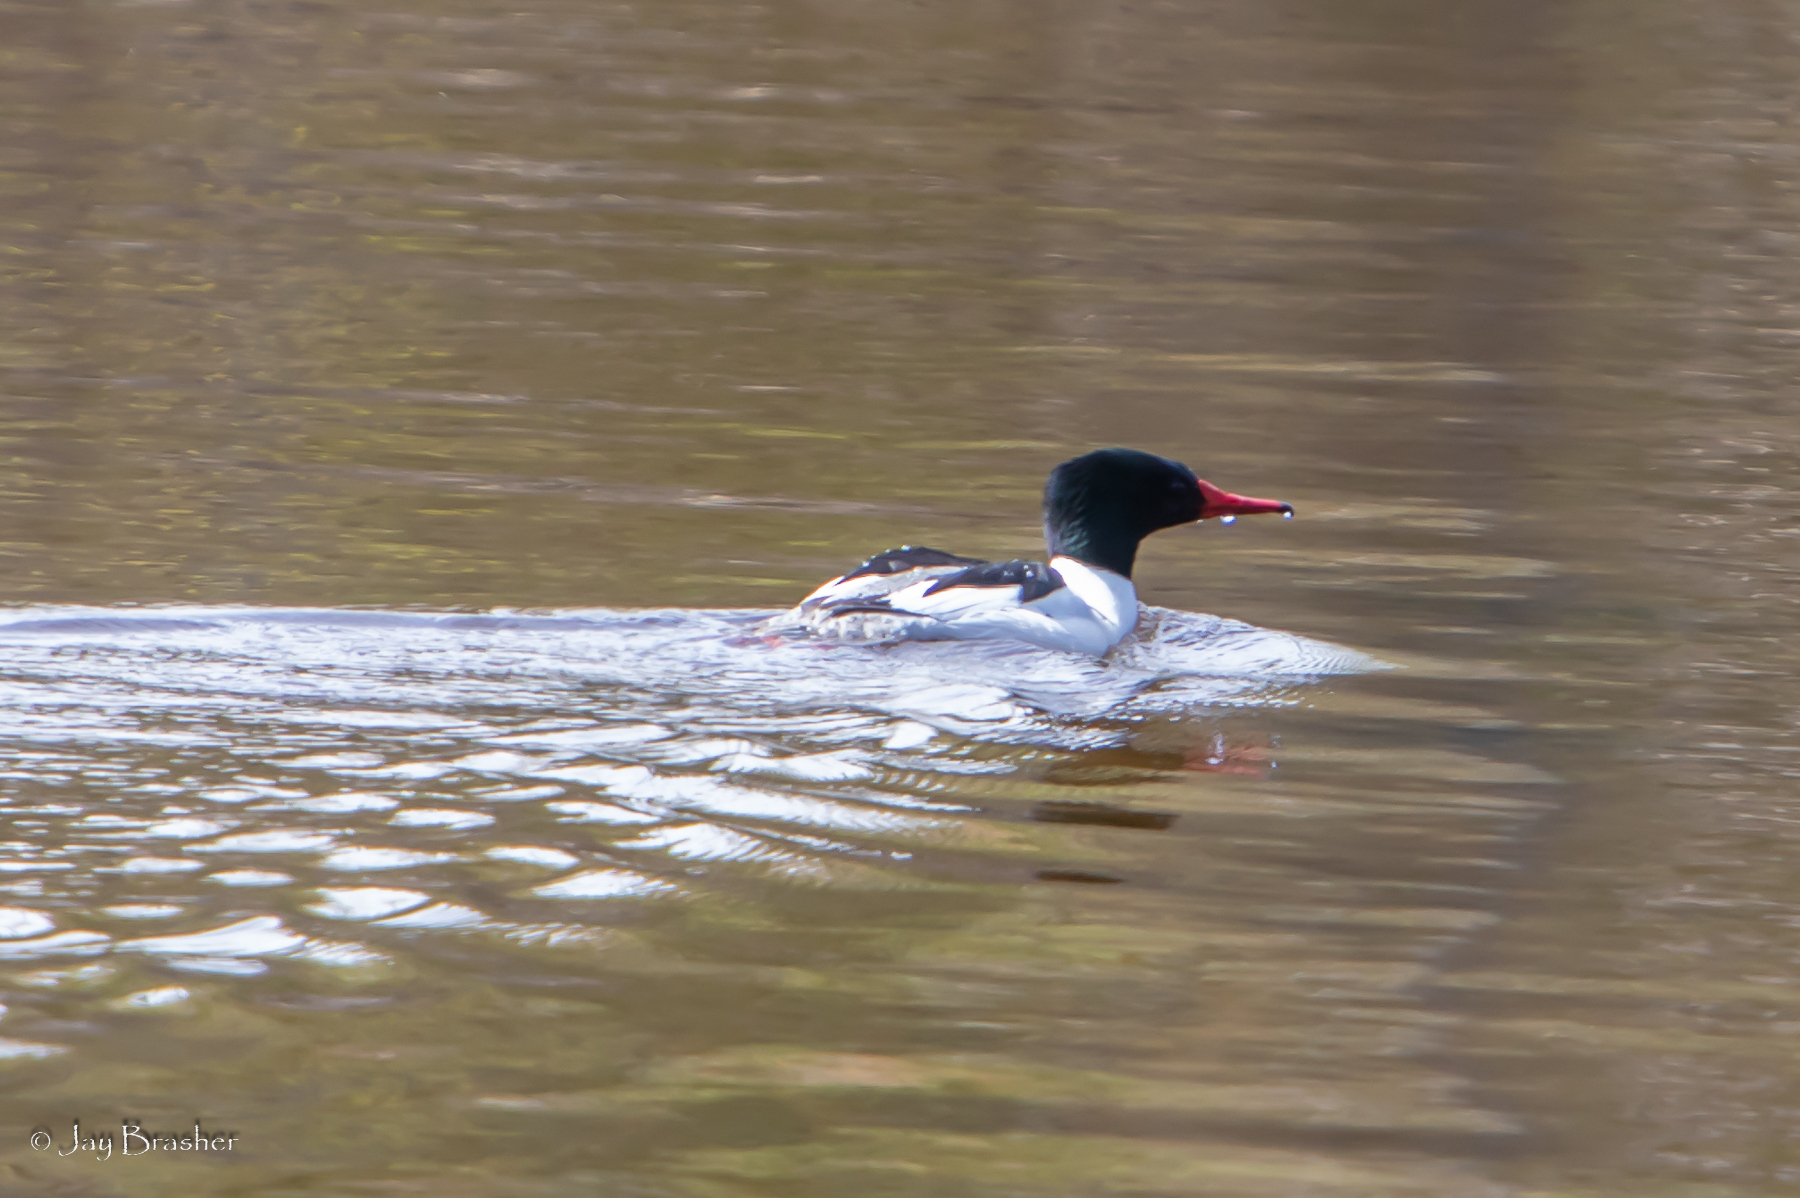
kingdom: Animalia
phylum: Chordata
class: Aves
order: Anseriformes
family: Anatidae
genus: Mergus
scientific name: Mergus merganser
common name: Common merganser
